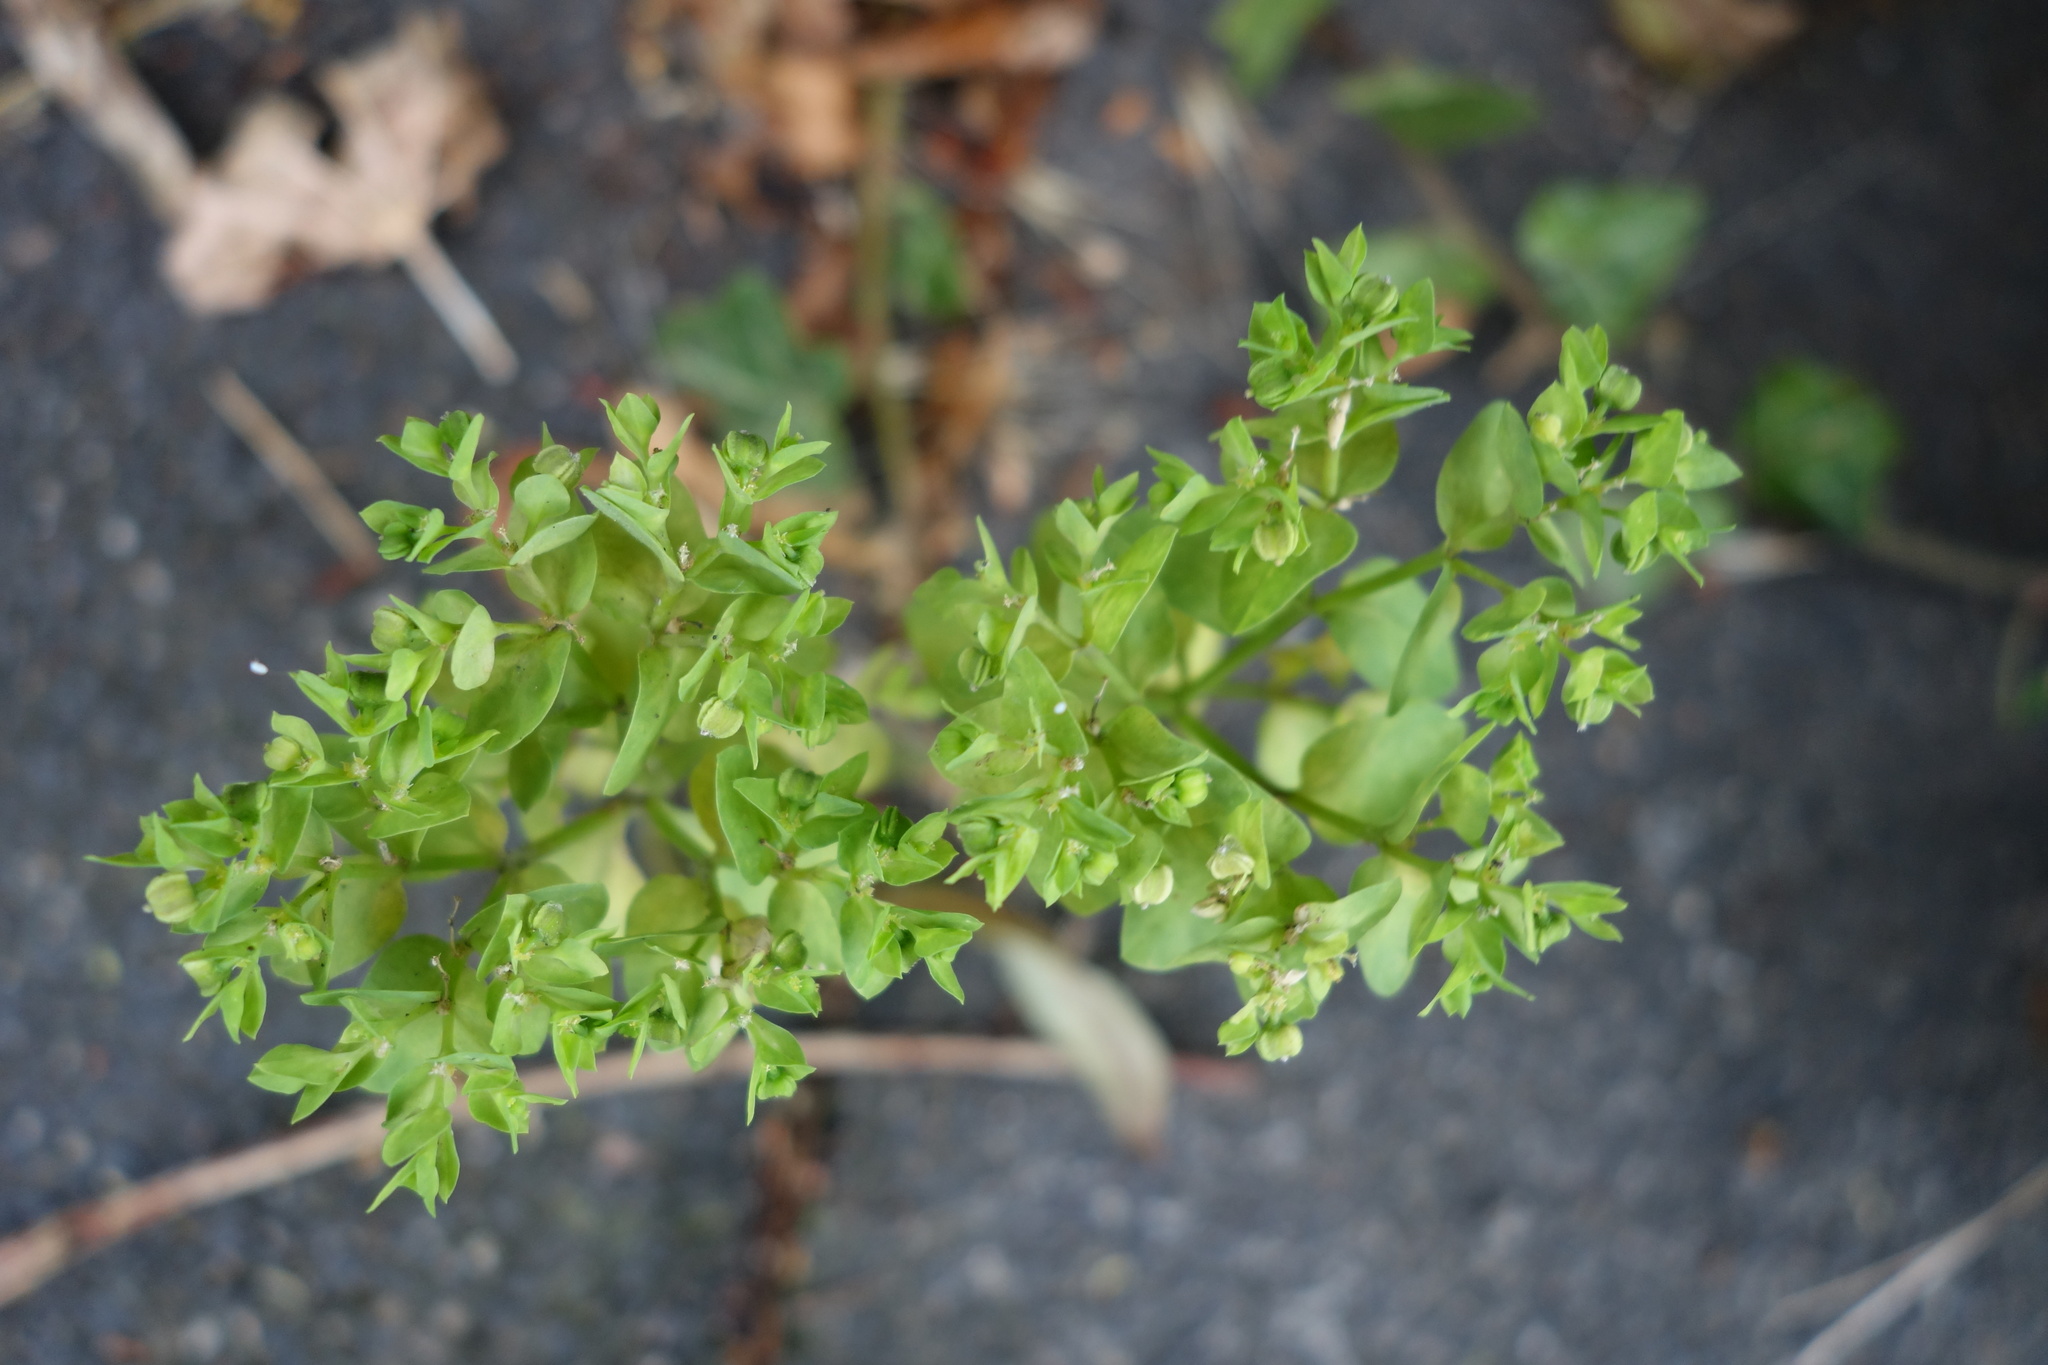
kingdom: Plantae
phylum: Tracheophyta
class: Magnoliopsida
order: Malpighiales
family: Euphorbiaceae
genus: Euphorbia
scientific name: Euphorbia peplus
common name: Petty spurge
